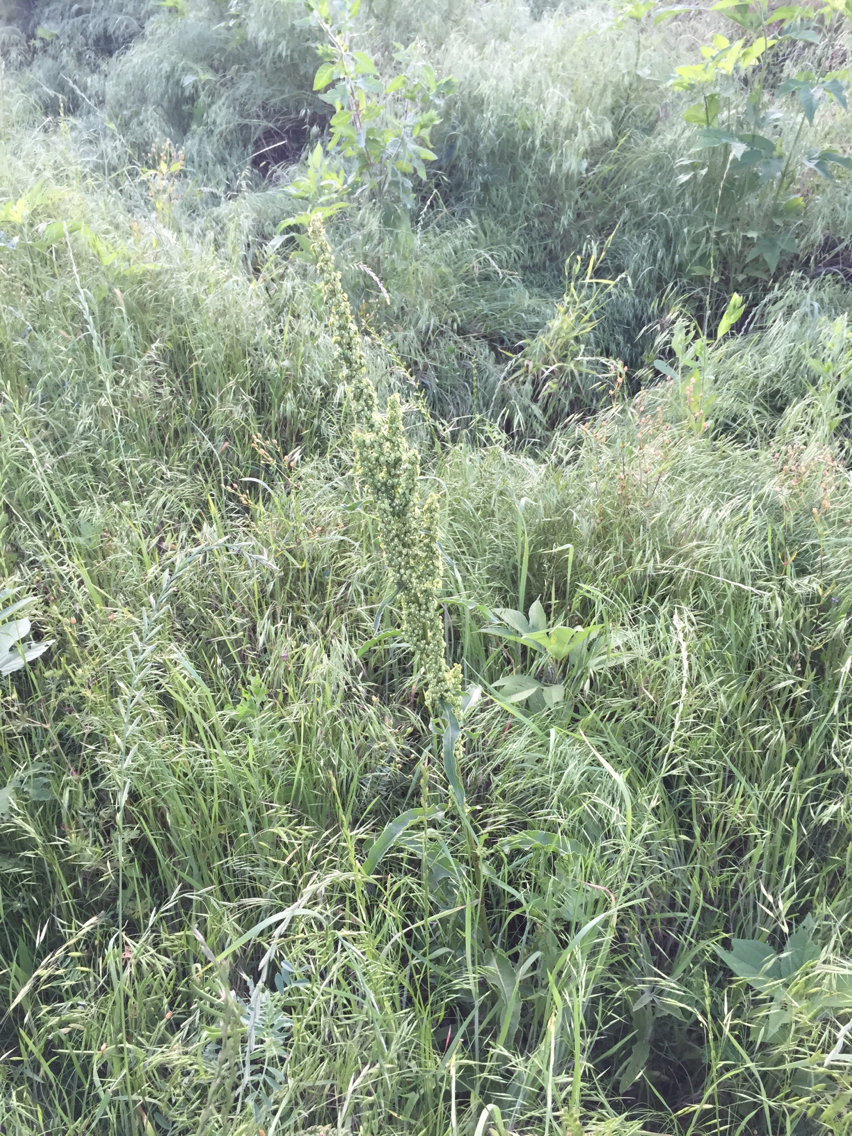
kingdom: Plantae
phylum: Tracheophyta
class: Magnoliopsida
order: Caryophyllales
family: Polygonaceae
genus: Rumex
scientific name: Rumex crispus
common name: Curled dock
